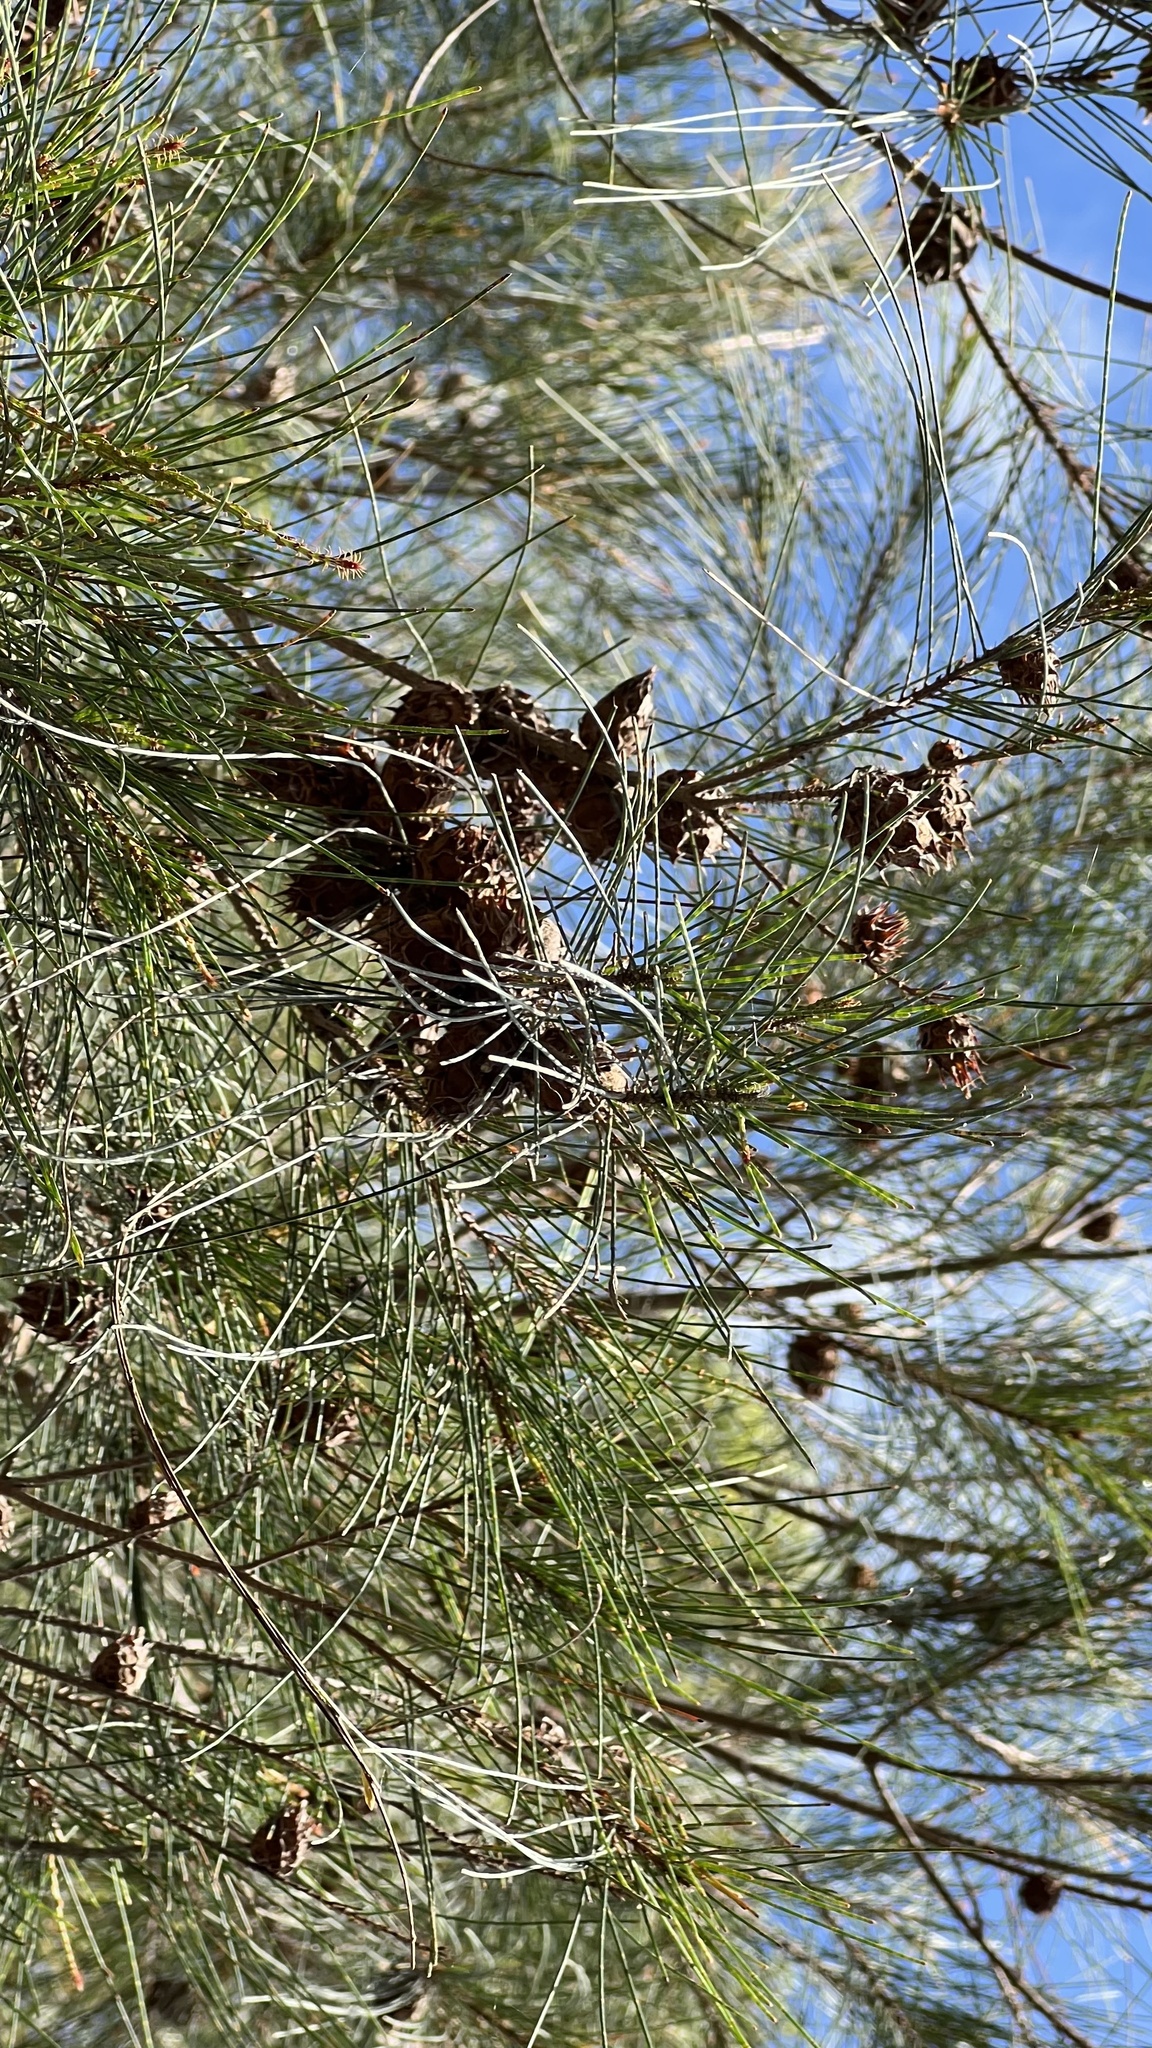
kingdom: Plantae
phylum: Tracheophyta
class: Magnoliopsida
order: Fagales
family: Casuarinaceae
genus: Casuarina
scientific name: Casuarina glauca
